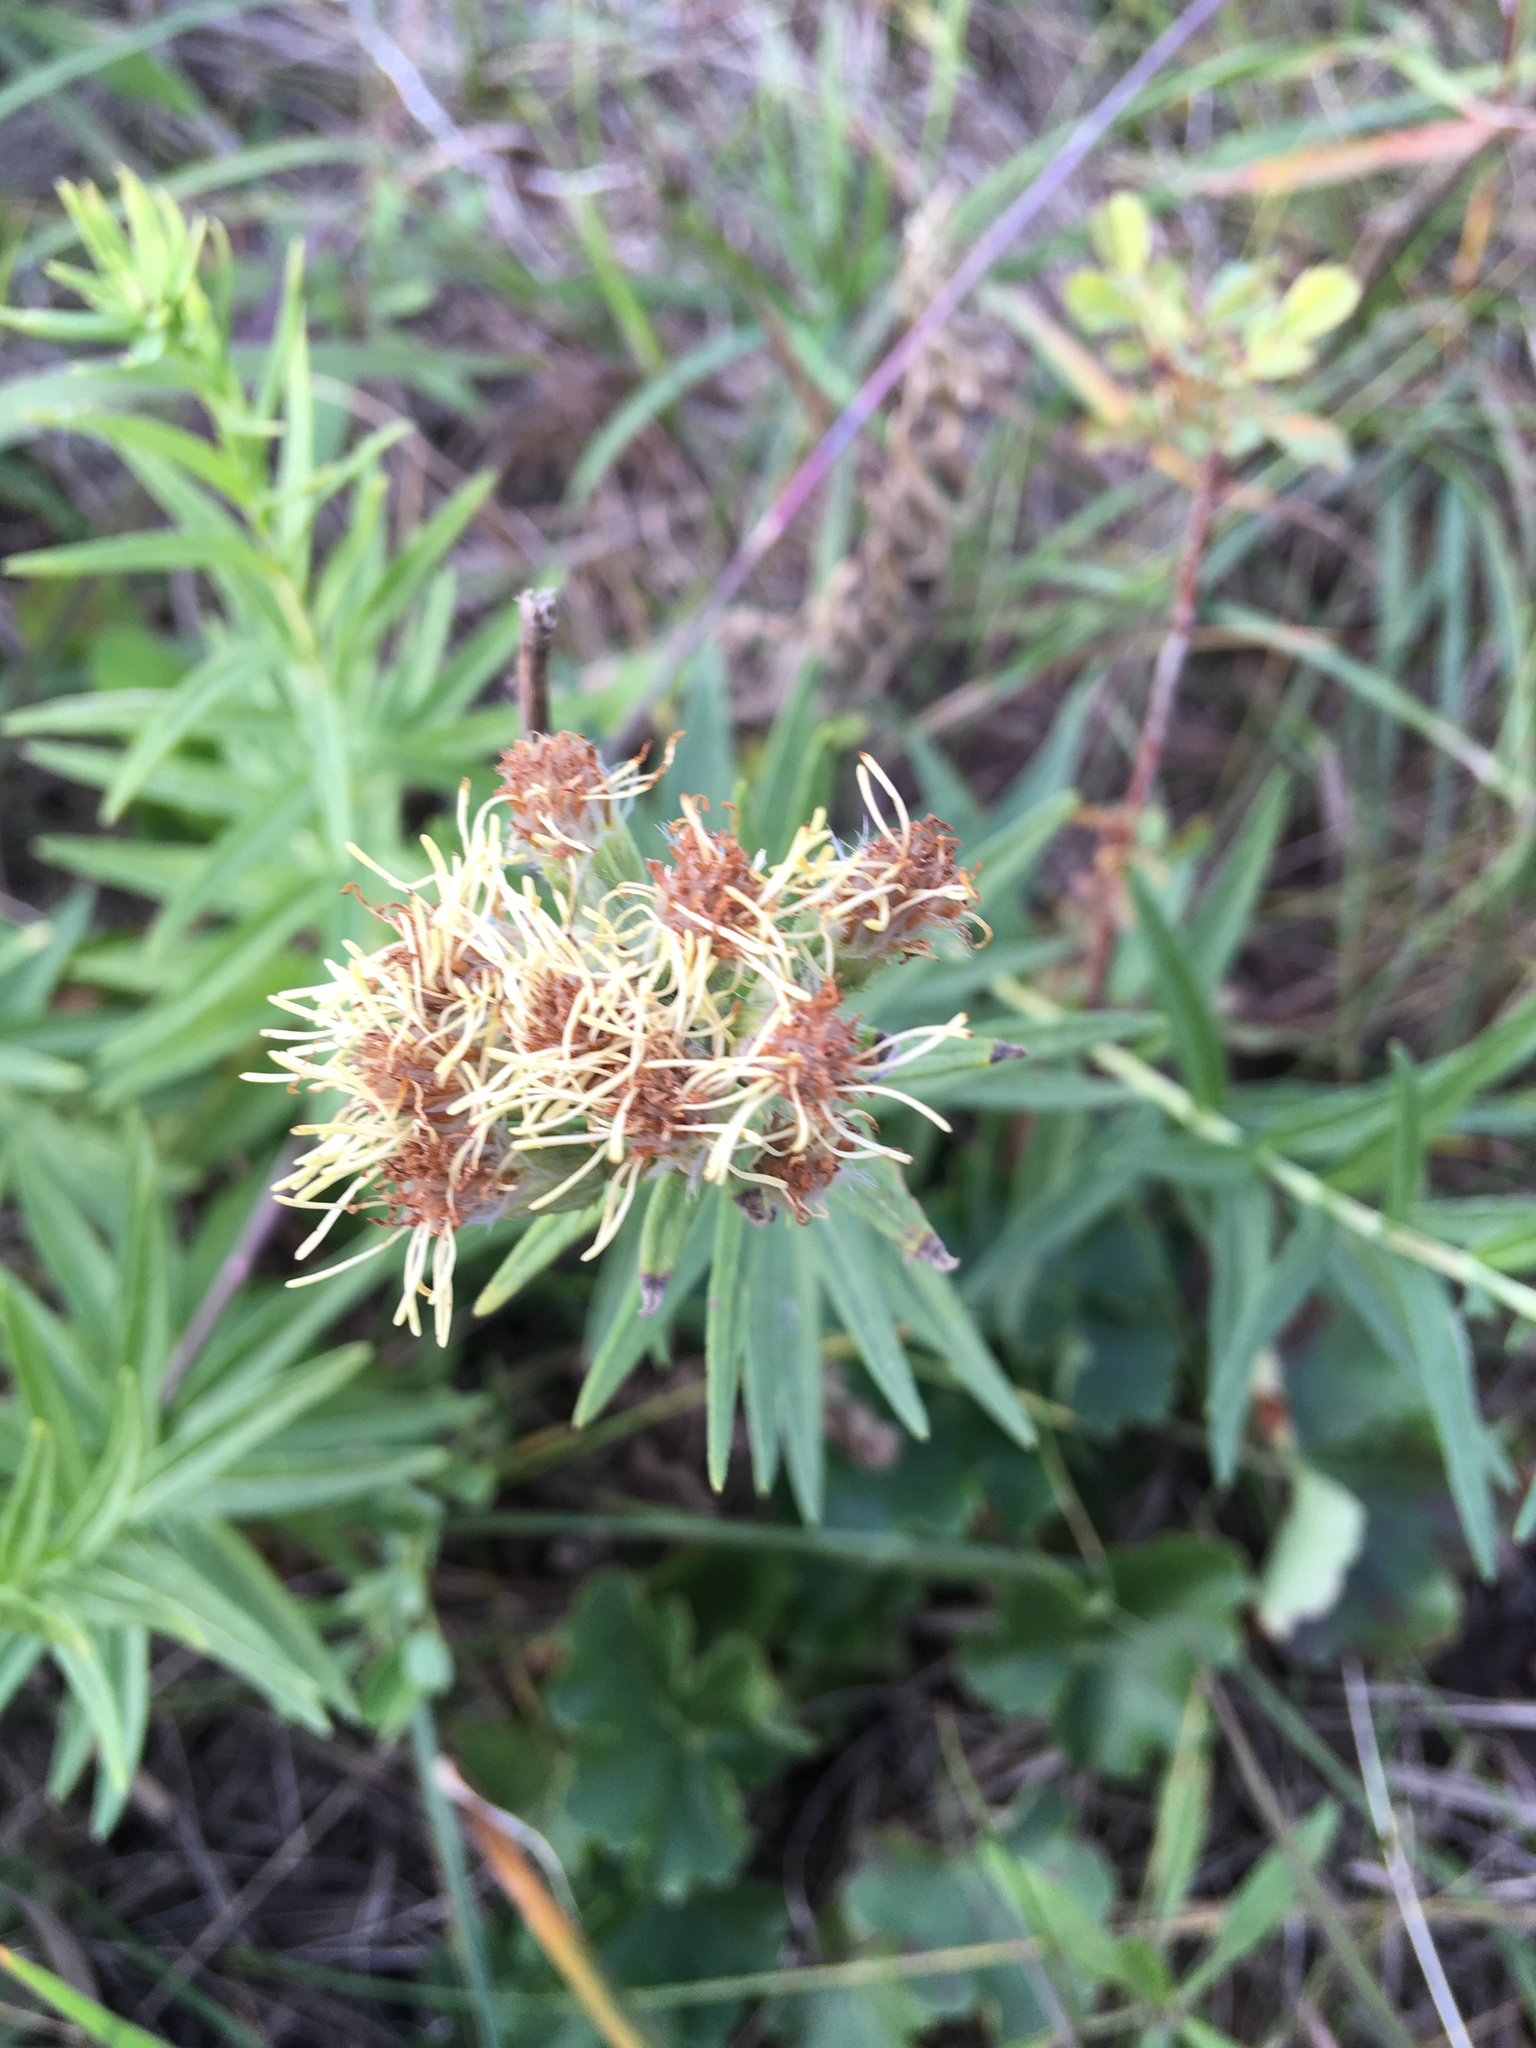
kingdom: Plantae
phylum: Tracheophyta
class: Magnoliopsida
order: Asterales
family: Asteraceae
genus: Brickellia
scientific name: Brickellia eupatorioides
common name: False boneset
